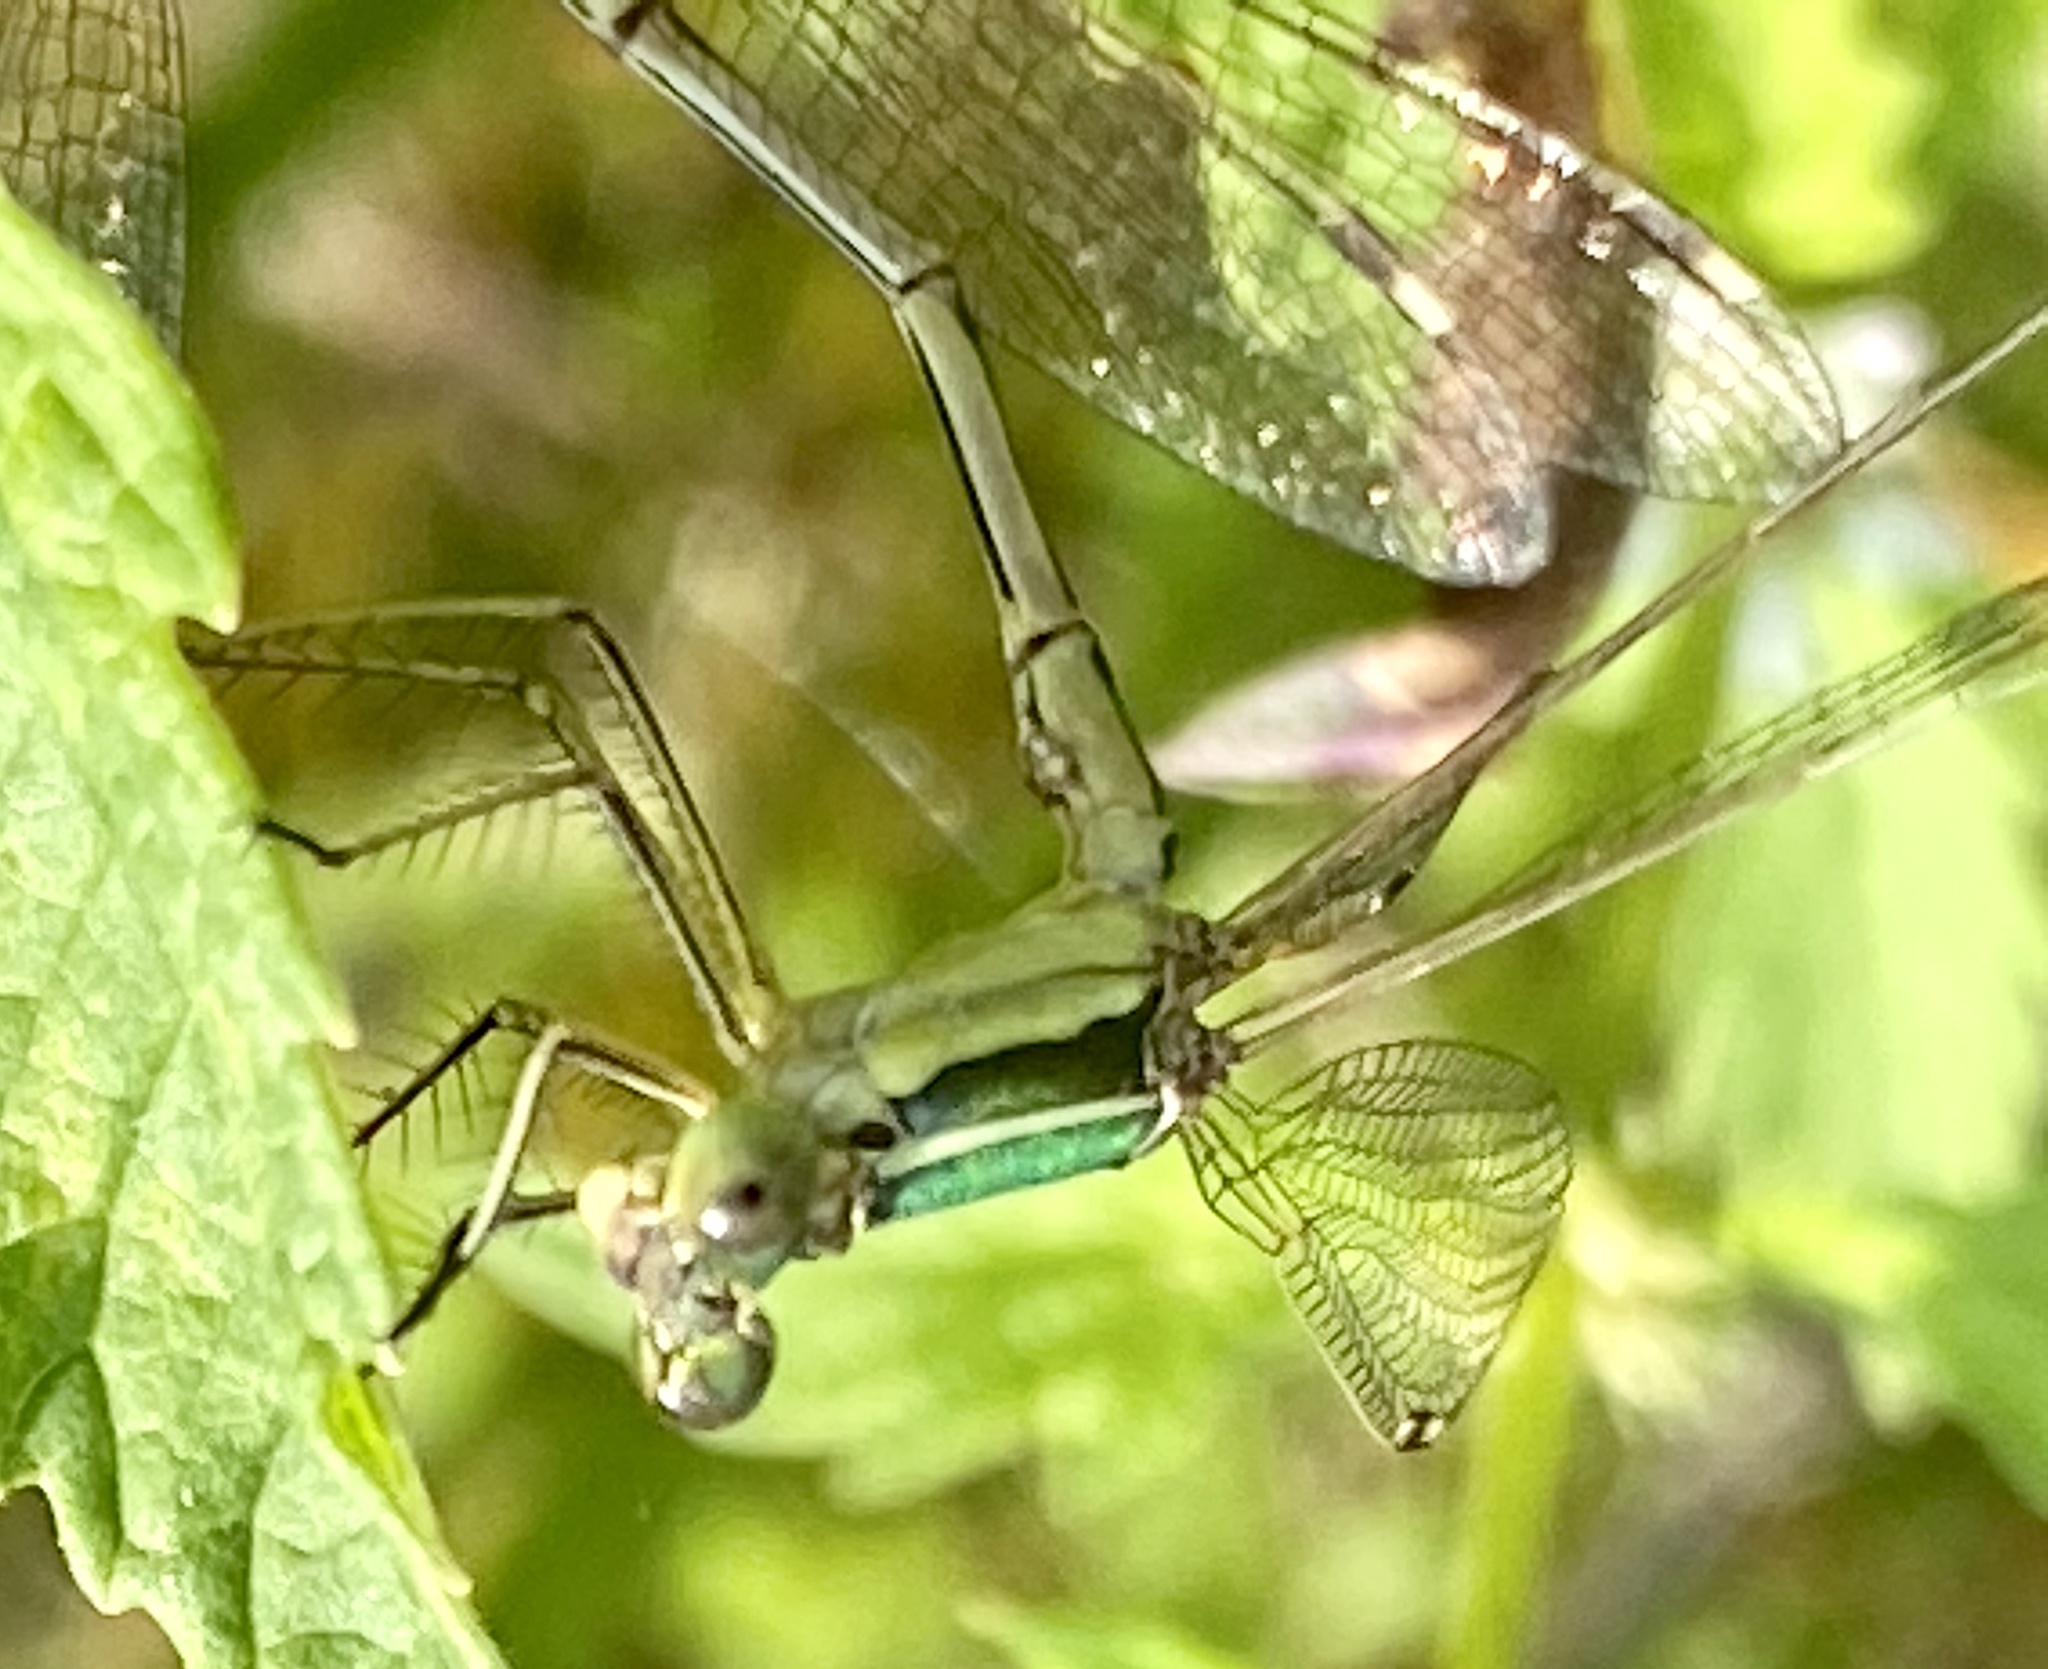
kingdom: Animalia
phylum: Arthropoda
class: Insecta
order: Odonata
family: Lestidae
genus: Lestes
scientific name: Lestes barbarus
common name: Migrant spreadwing
